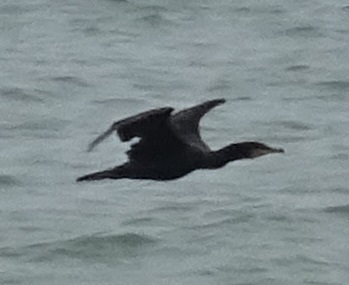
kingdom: Animalia
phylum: Chordata
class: Aves
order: Suliformes
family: Phalacrocoracidae
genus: Phalacrocorax
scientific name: Phalacrocorax carbo
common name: Great cormorant
